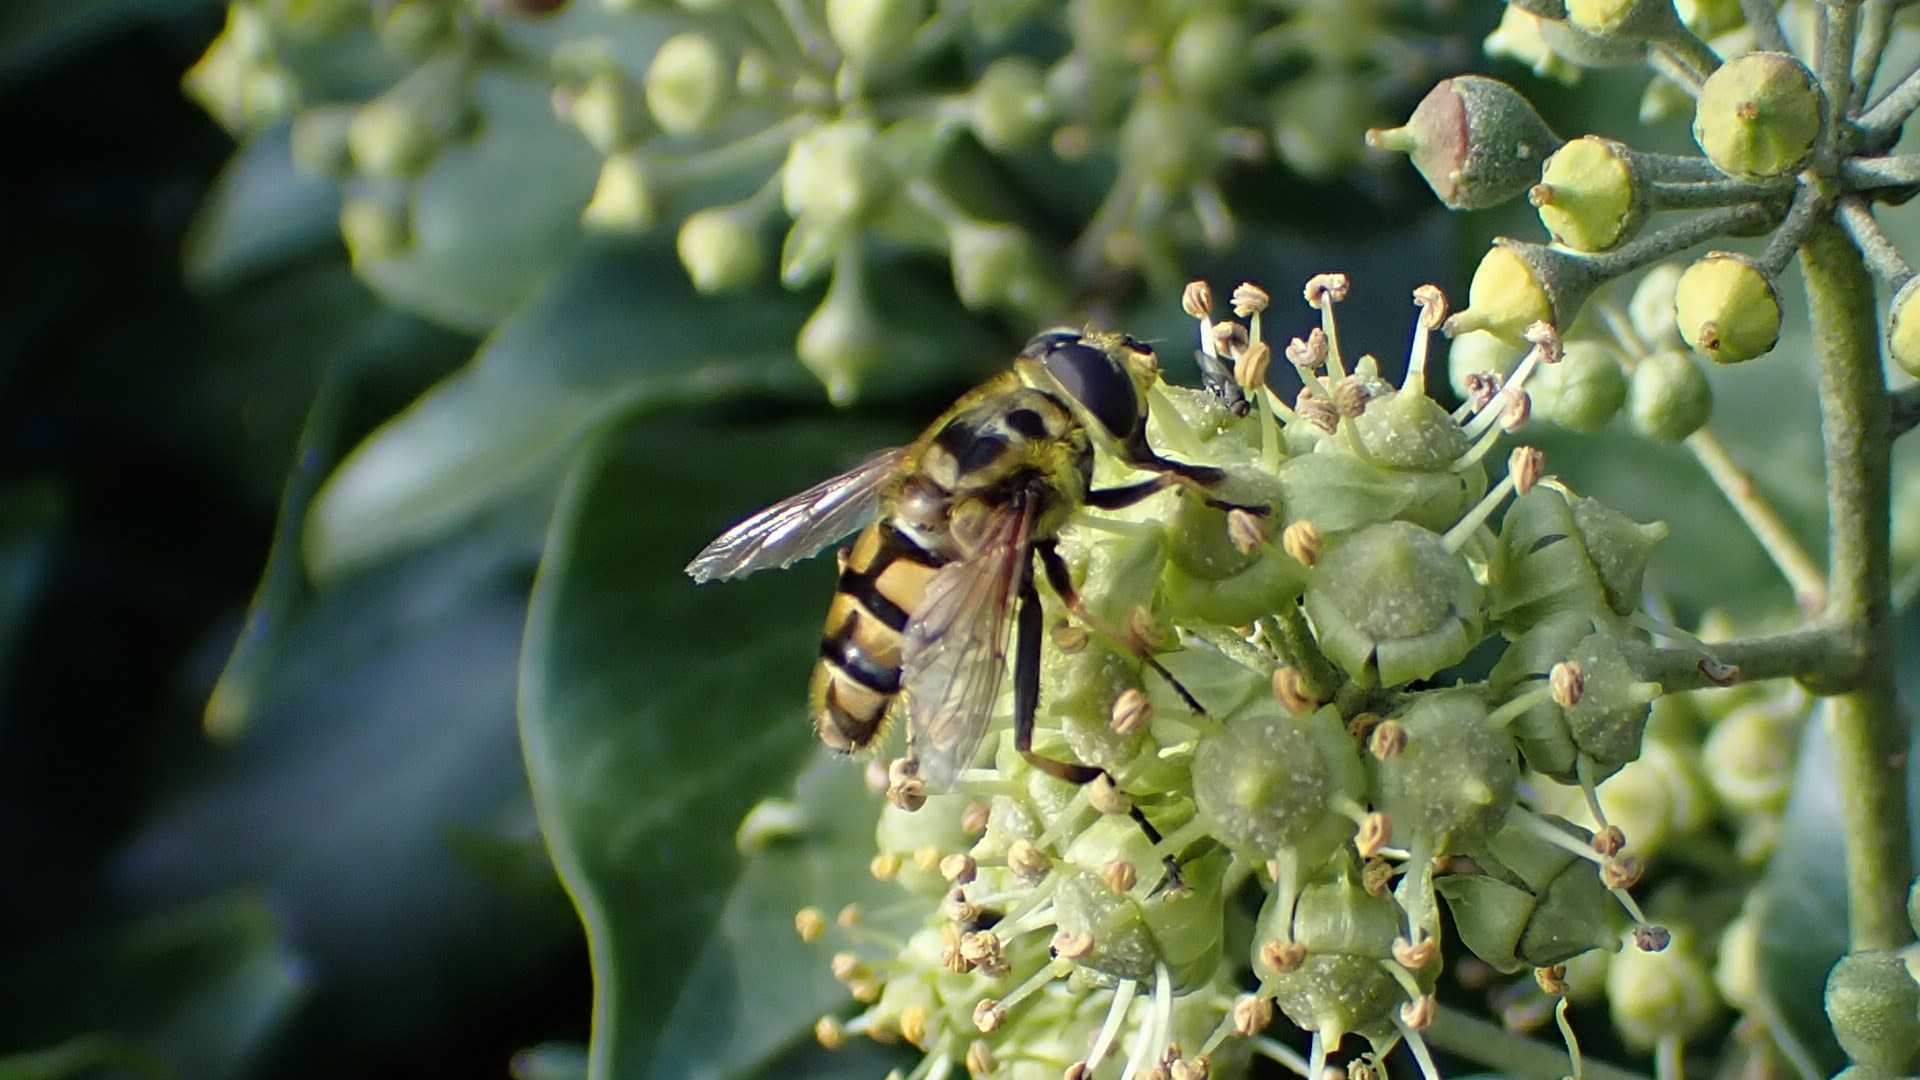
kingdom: Animalia
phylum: Arthropoda
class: Insecta
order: Diptera
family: Syrphidae
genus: Myathropa
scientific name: Myathropa florea
